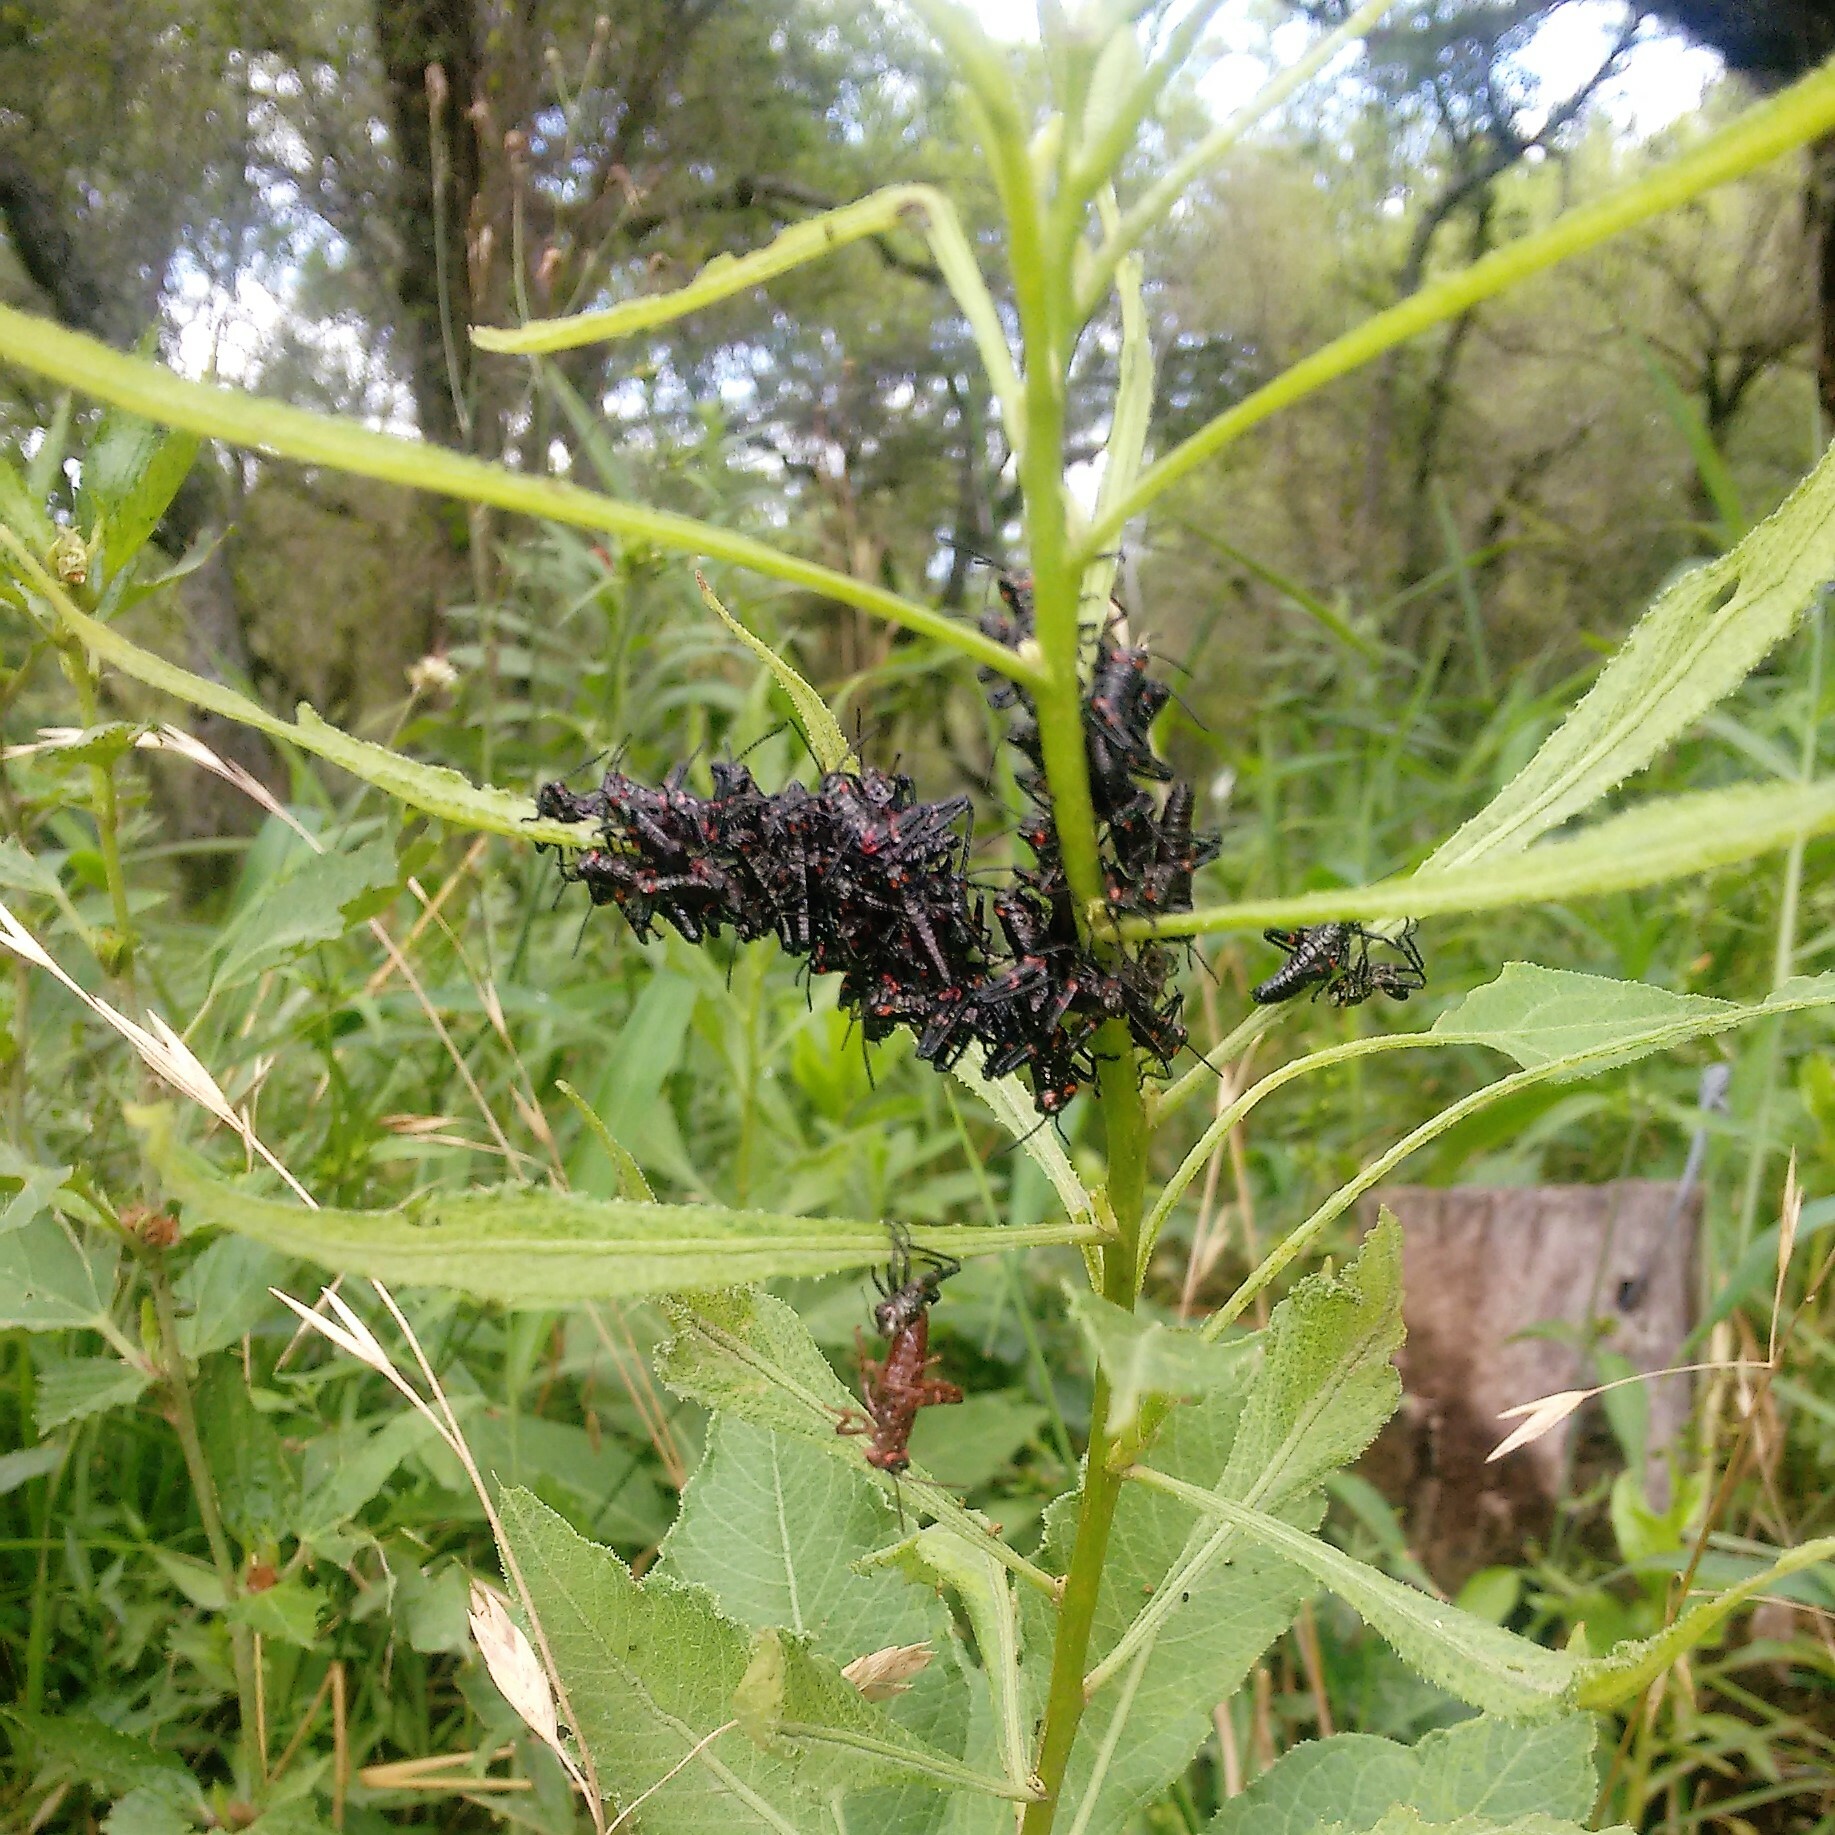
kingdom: Animalia
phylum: Arthropoda
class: Insecta
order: Orthoptera
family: Romaleidae
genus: Chromacris
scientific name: Chromacris speciosa
